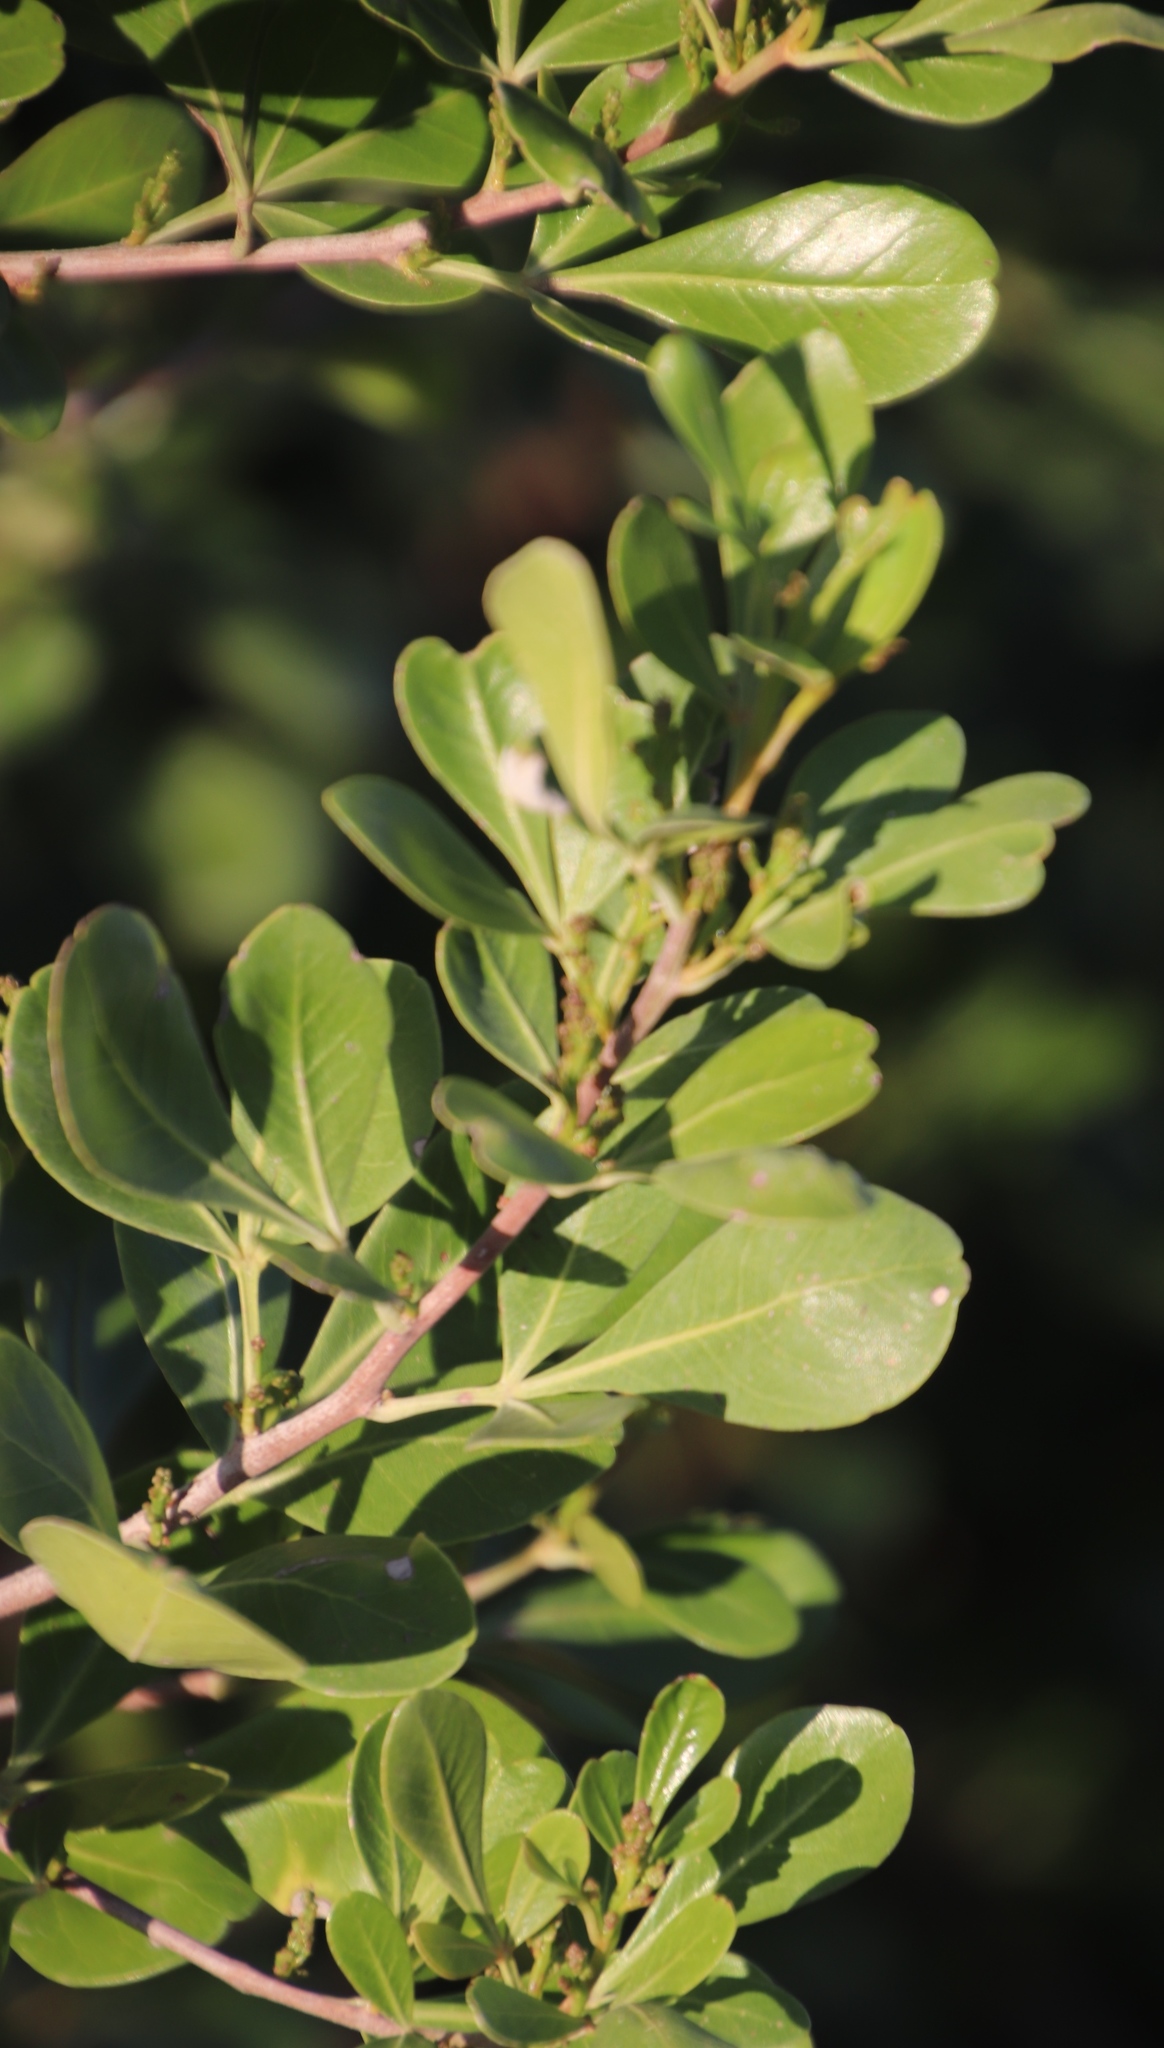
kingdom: Plantae
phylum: Tracheophyta
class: Magnoliopsida
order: Sapindales
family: Anacardiaceae
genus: Searsia
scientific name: Searsia lucida
